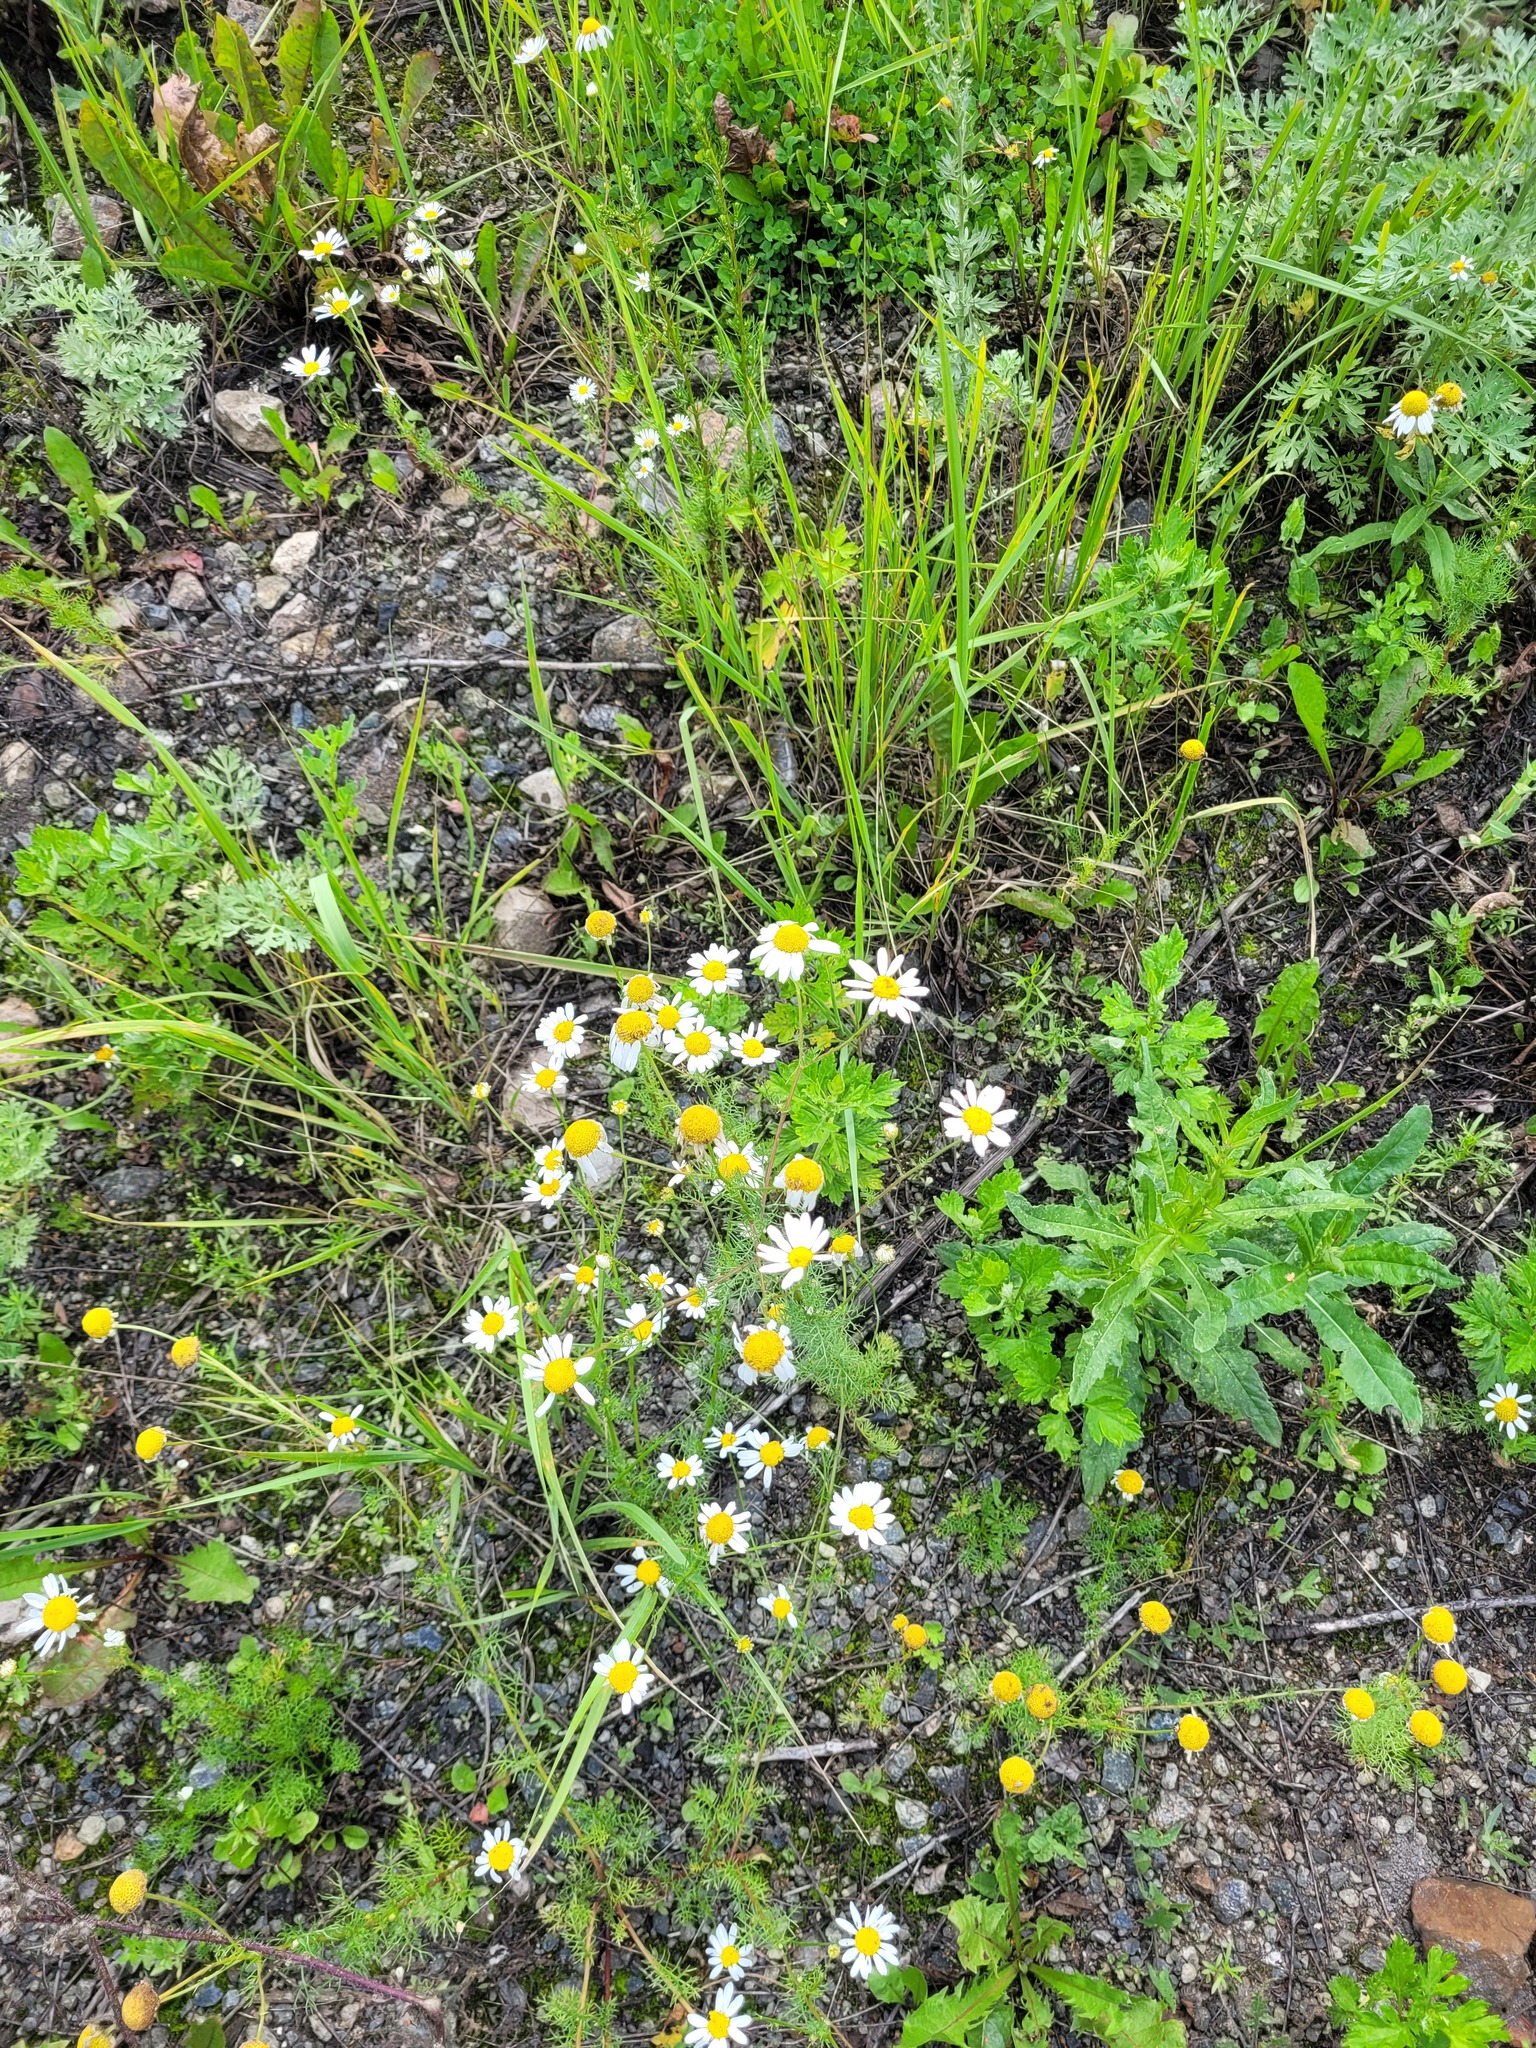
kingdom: Plantae
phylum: Tracheophyta
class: Magnoliopsida
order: Asterales
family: Asteraceae
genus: Tripleurospermum
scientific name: Tripleurospermum inodorum
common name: Scentless mayweed
